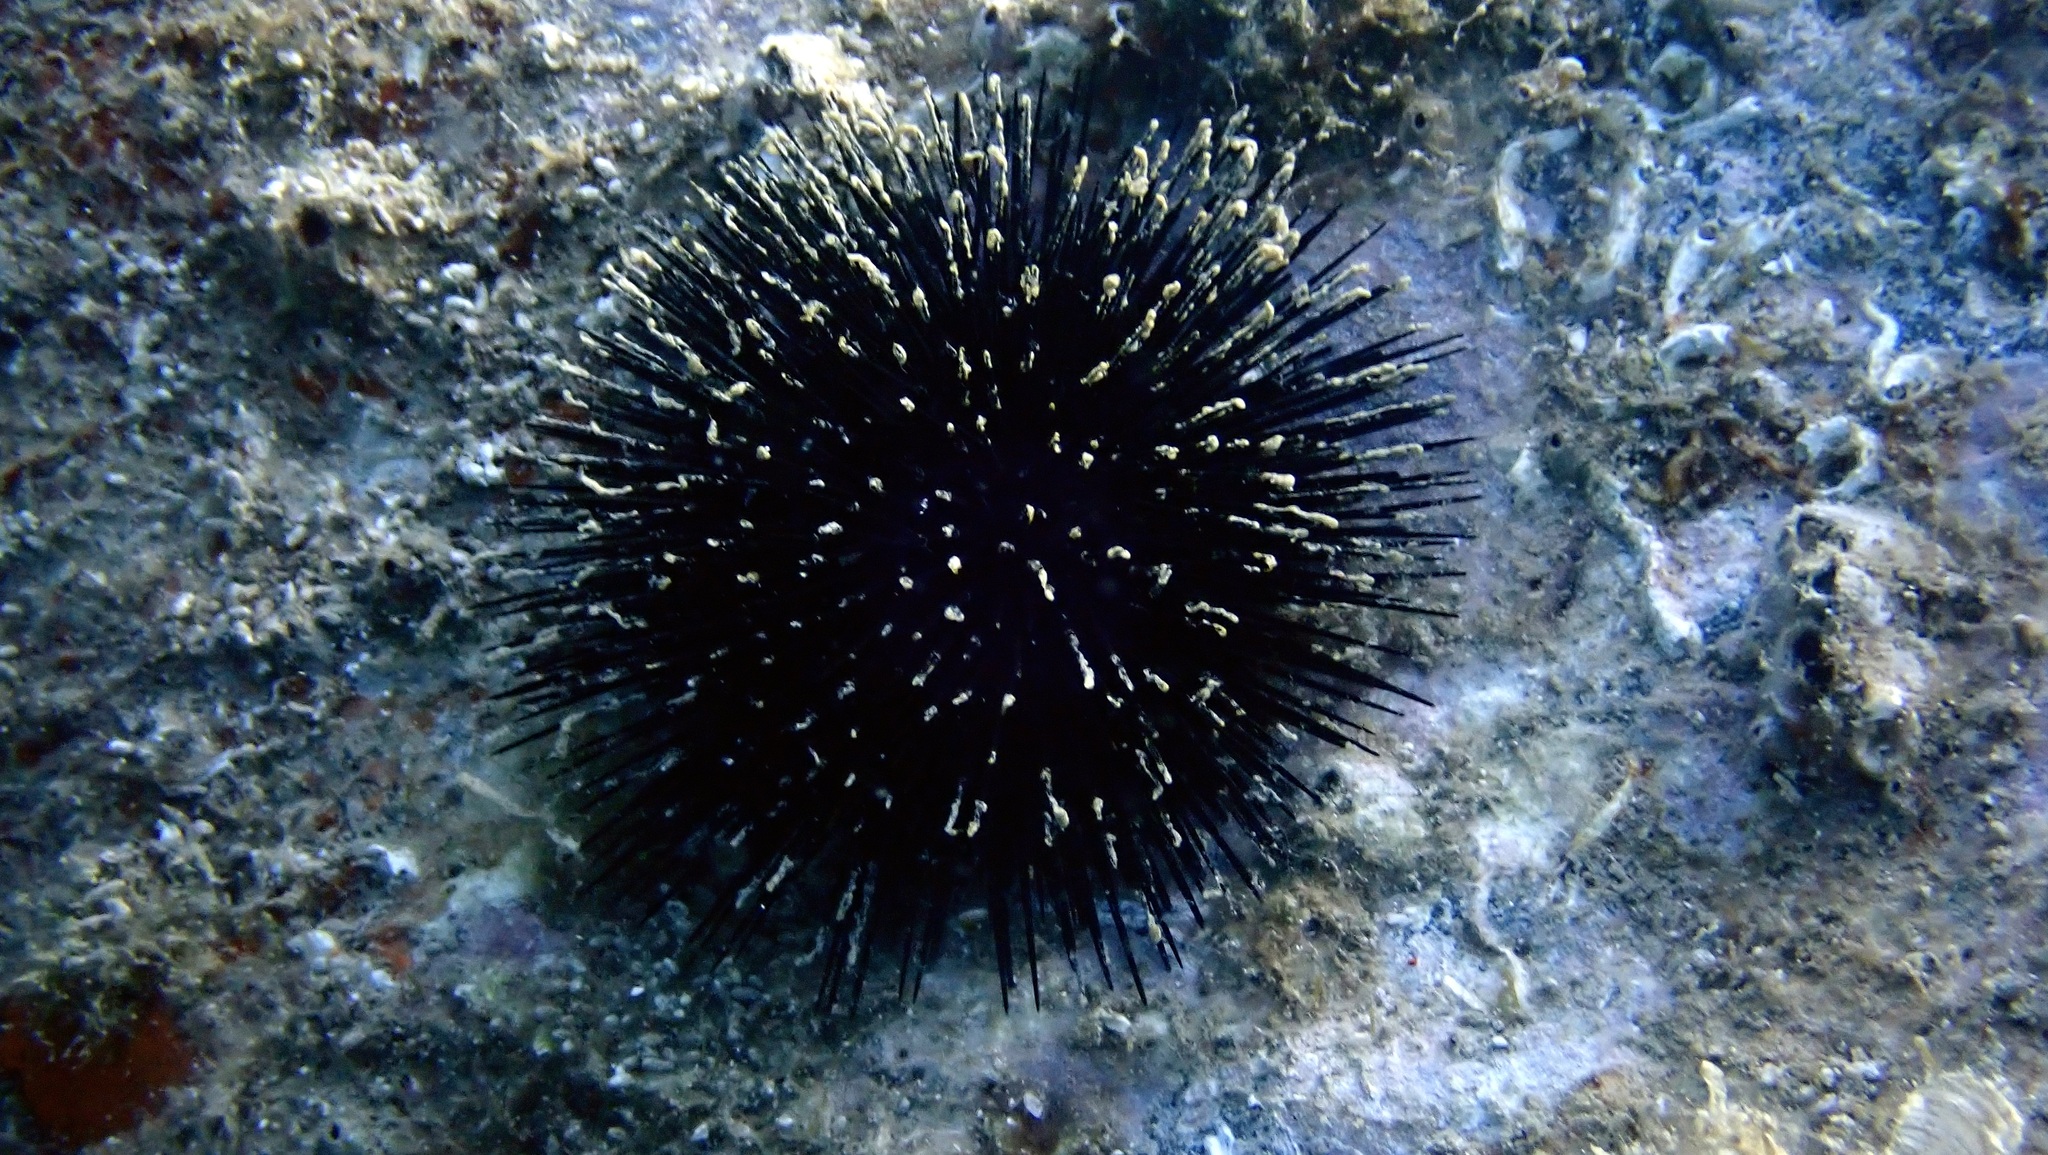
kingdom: Animalia
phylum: Echinodermata
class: Echinoidea
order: Arbacioida
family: Arbaciidae
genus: Arbacia
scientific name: Arbacia lixula
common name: Black sea urchin
